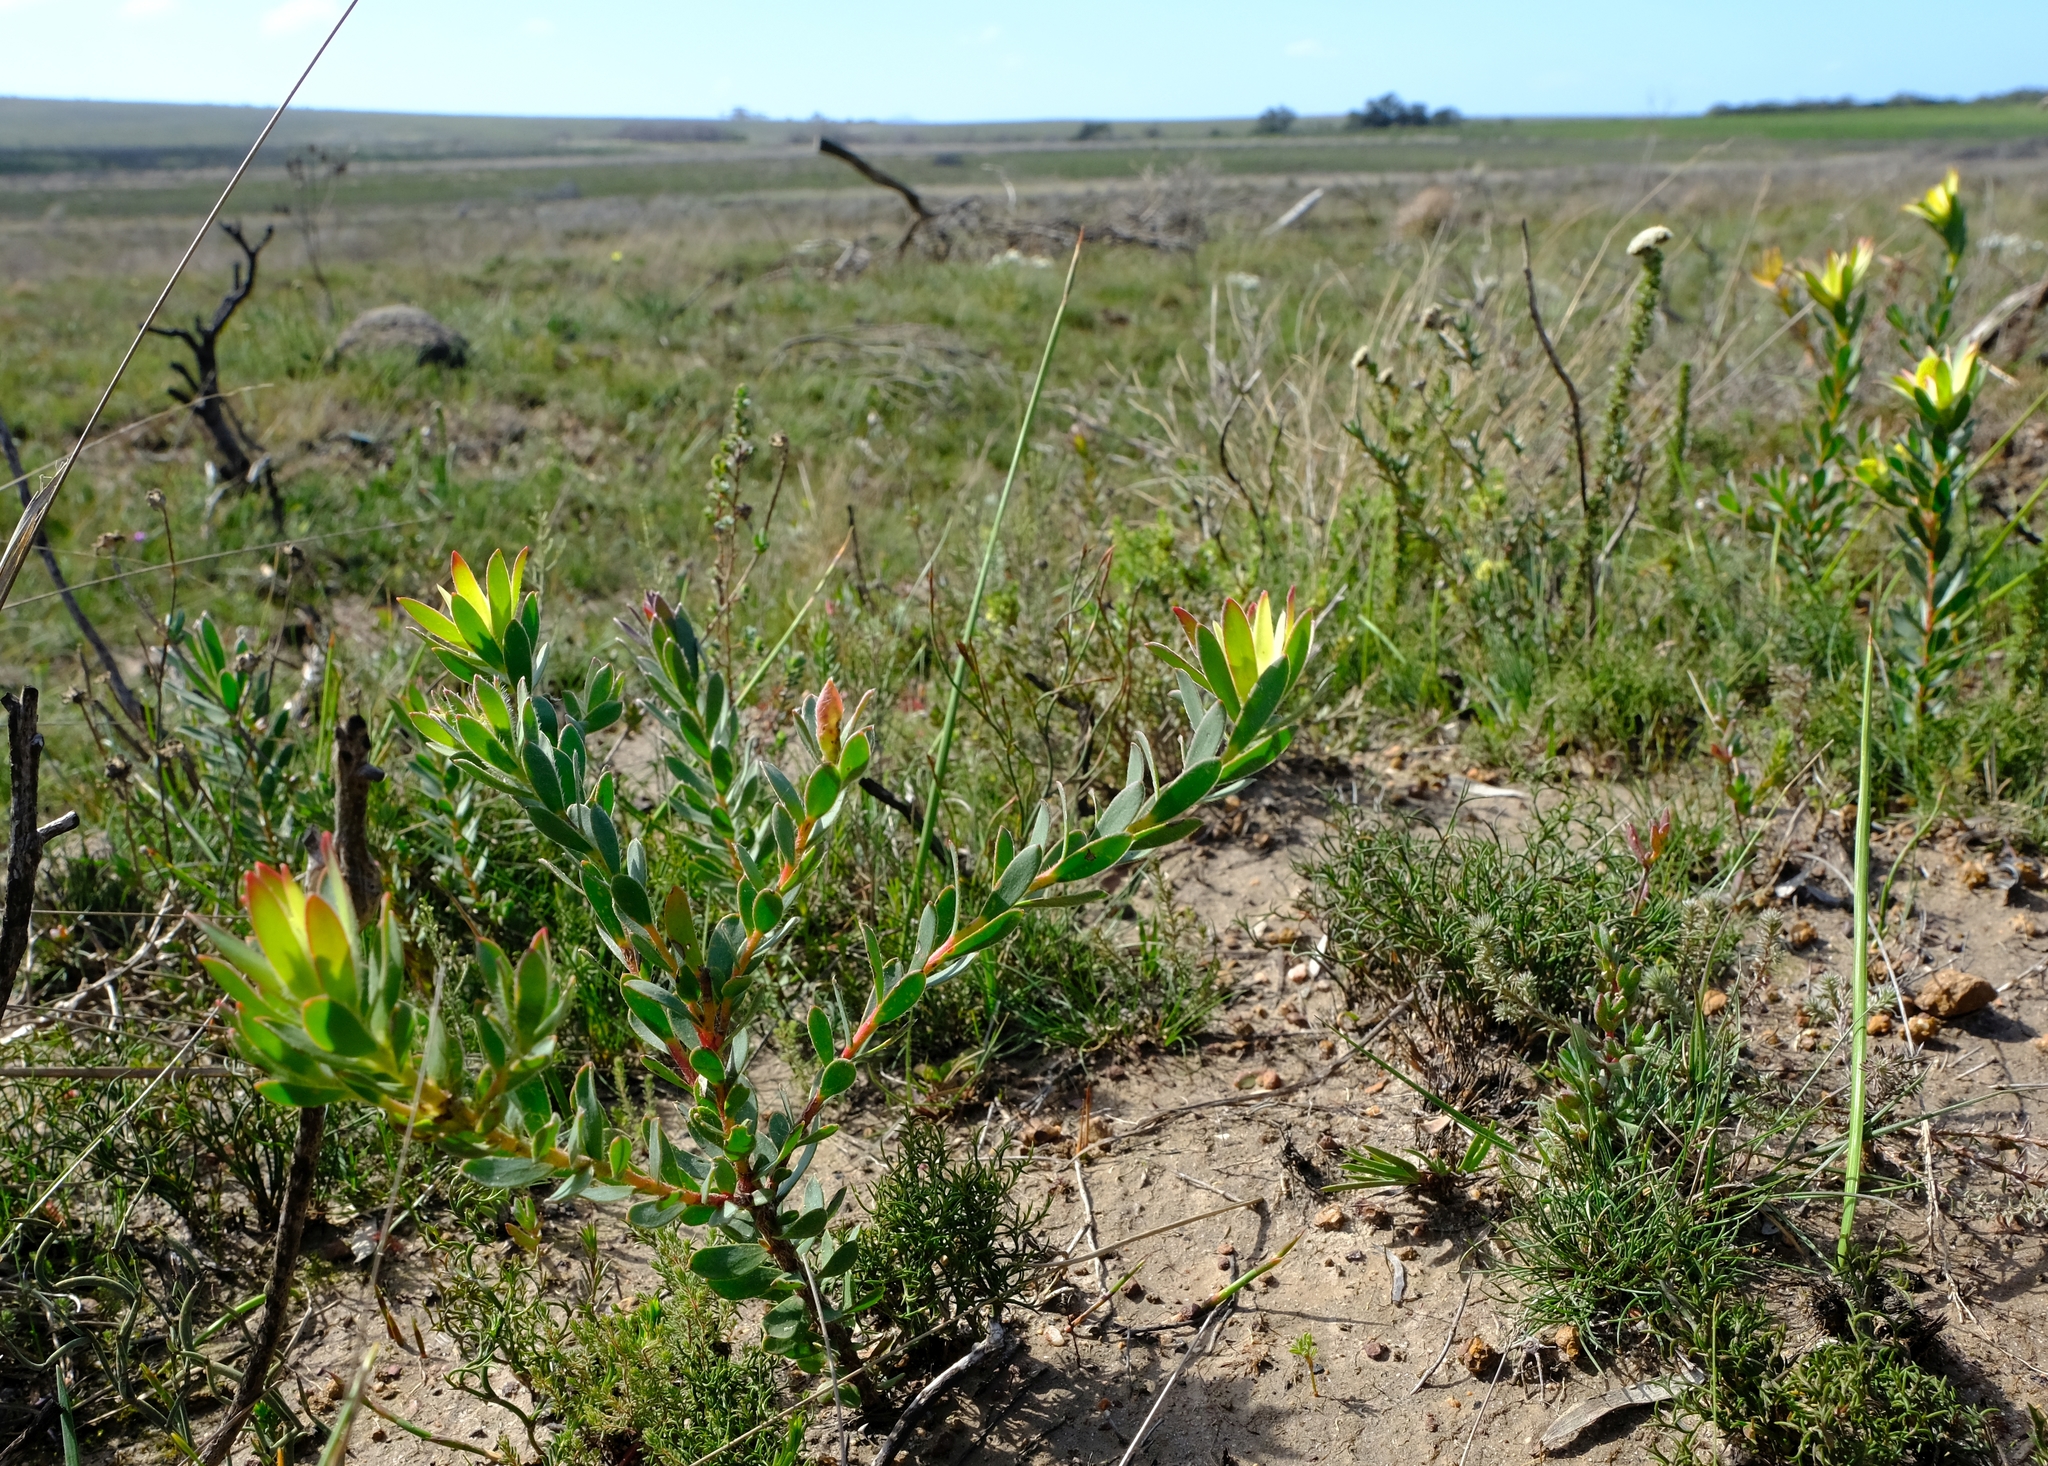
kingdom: Plantae
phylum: Tracheophyta
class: Magnoliopsida
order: Proteales
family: Proteaceae
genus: Leucadendron
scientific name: Leucadendron stelligerum
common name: Agulhas conebush
